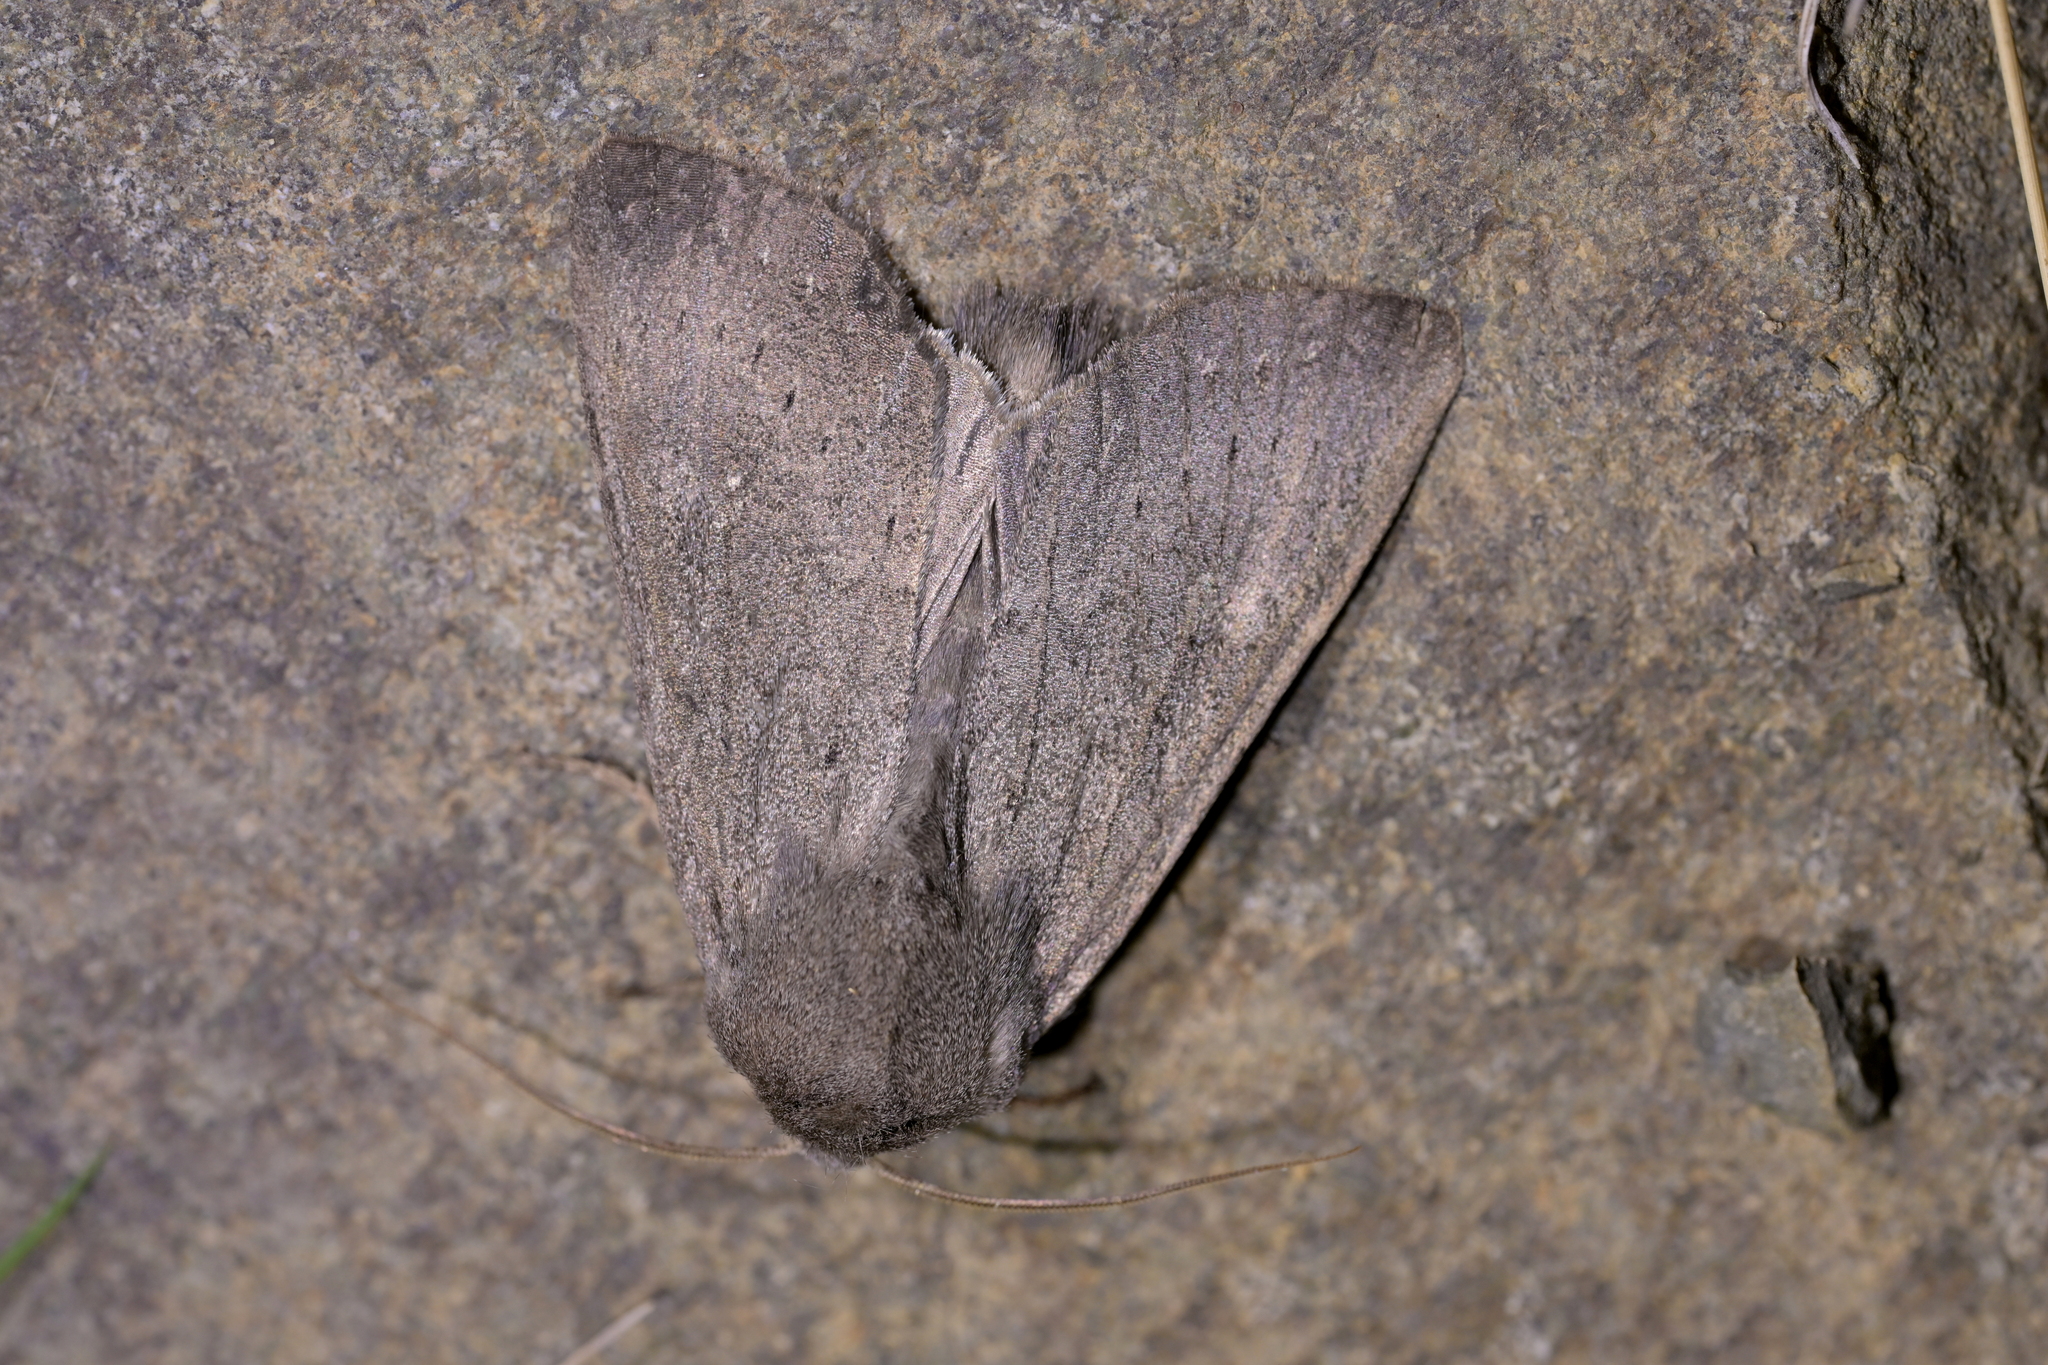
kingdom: Animalia
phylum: Arthropoda
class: Insecta
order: Lepidoptera
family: Noctuidae
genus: Ichneutica
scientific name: Ichneutica nullifera
